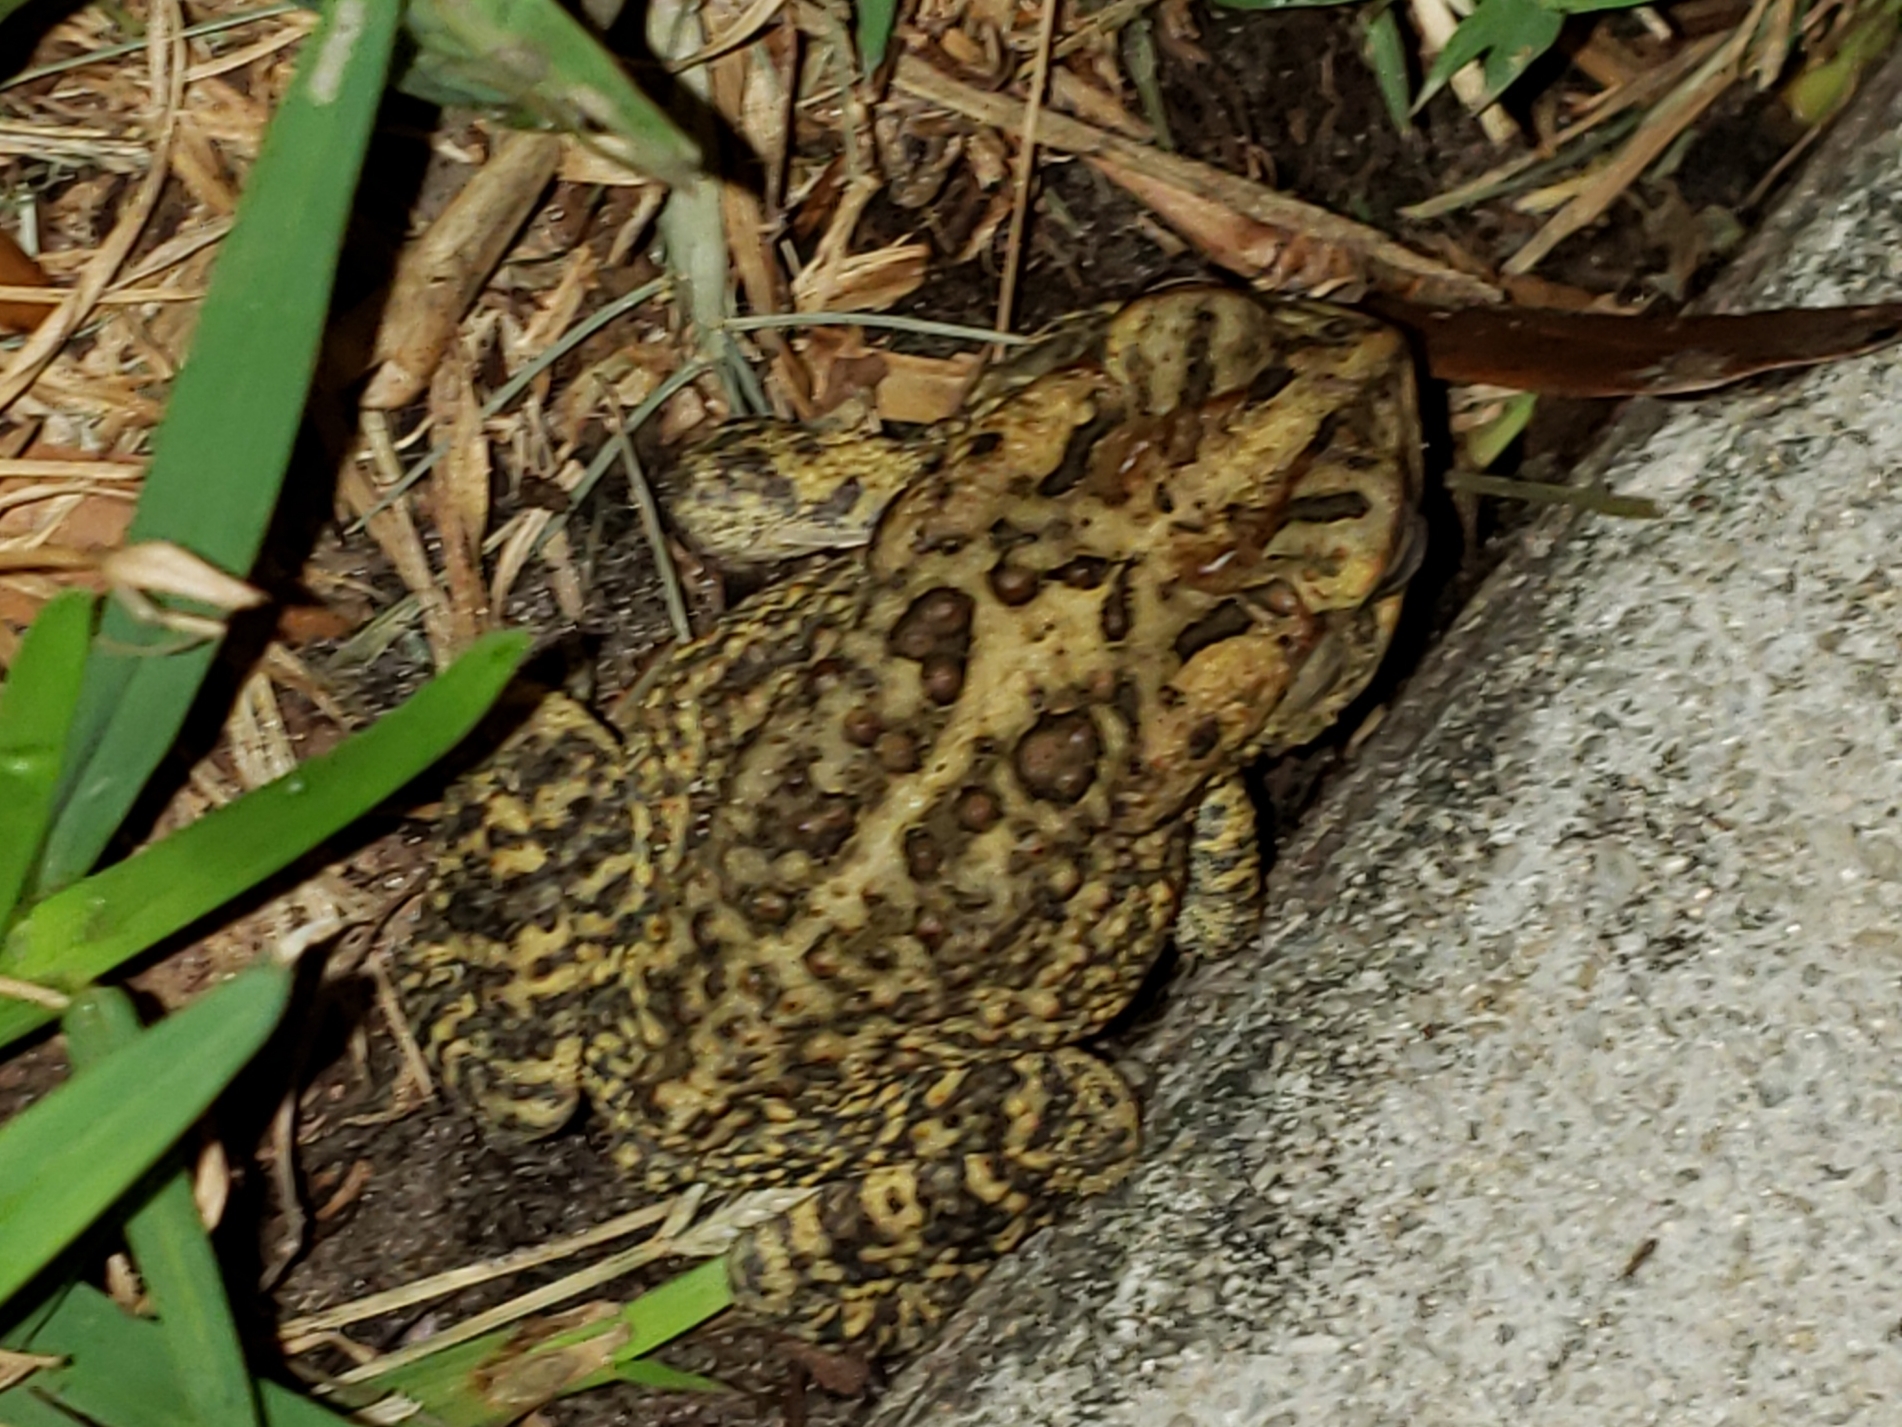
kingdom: Animalia
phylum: Chordata
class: Amphibia
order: Anura
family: Bufonidae
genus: Anaxyrus
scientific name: Anaxyrus terrestris
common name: Southern toad
